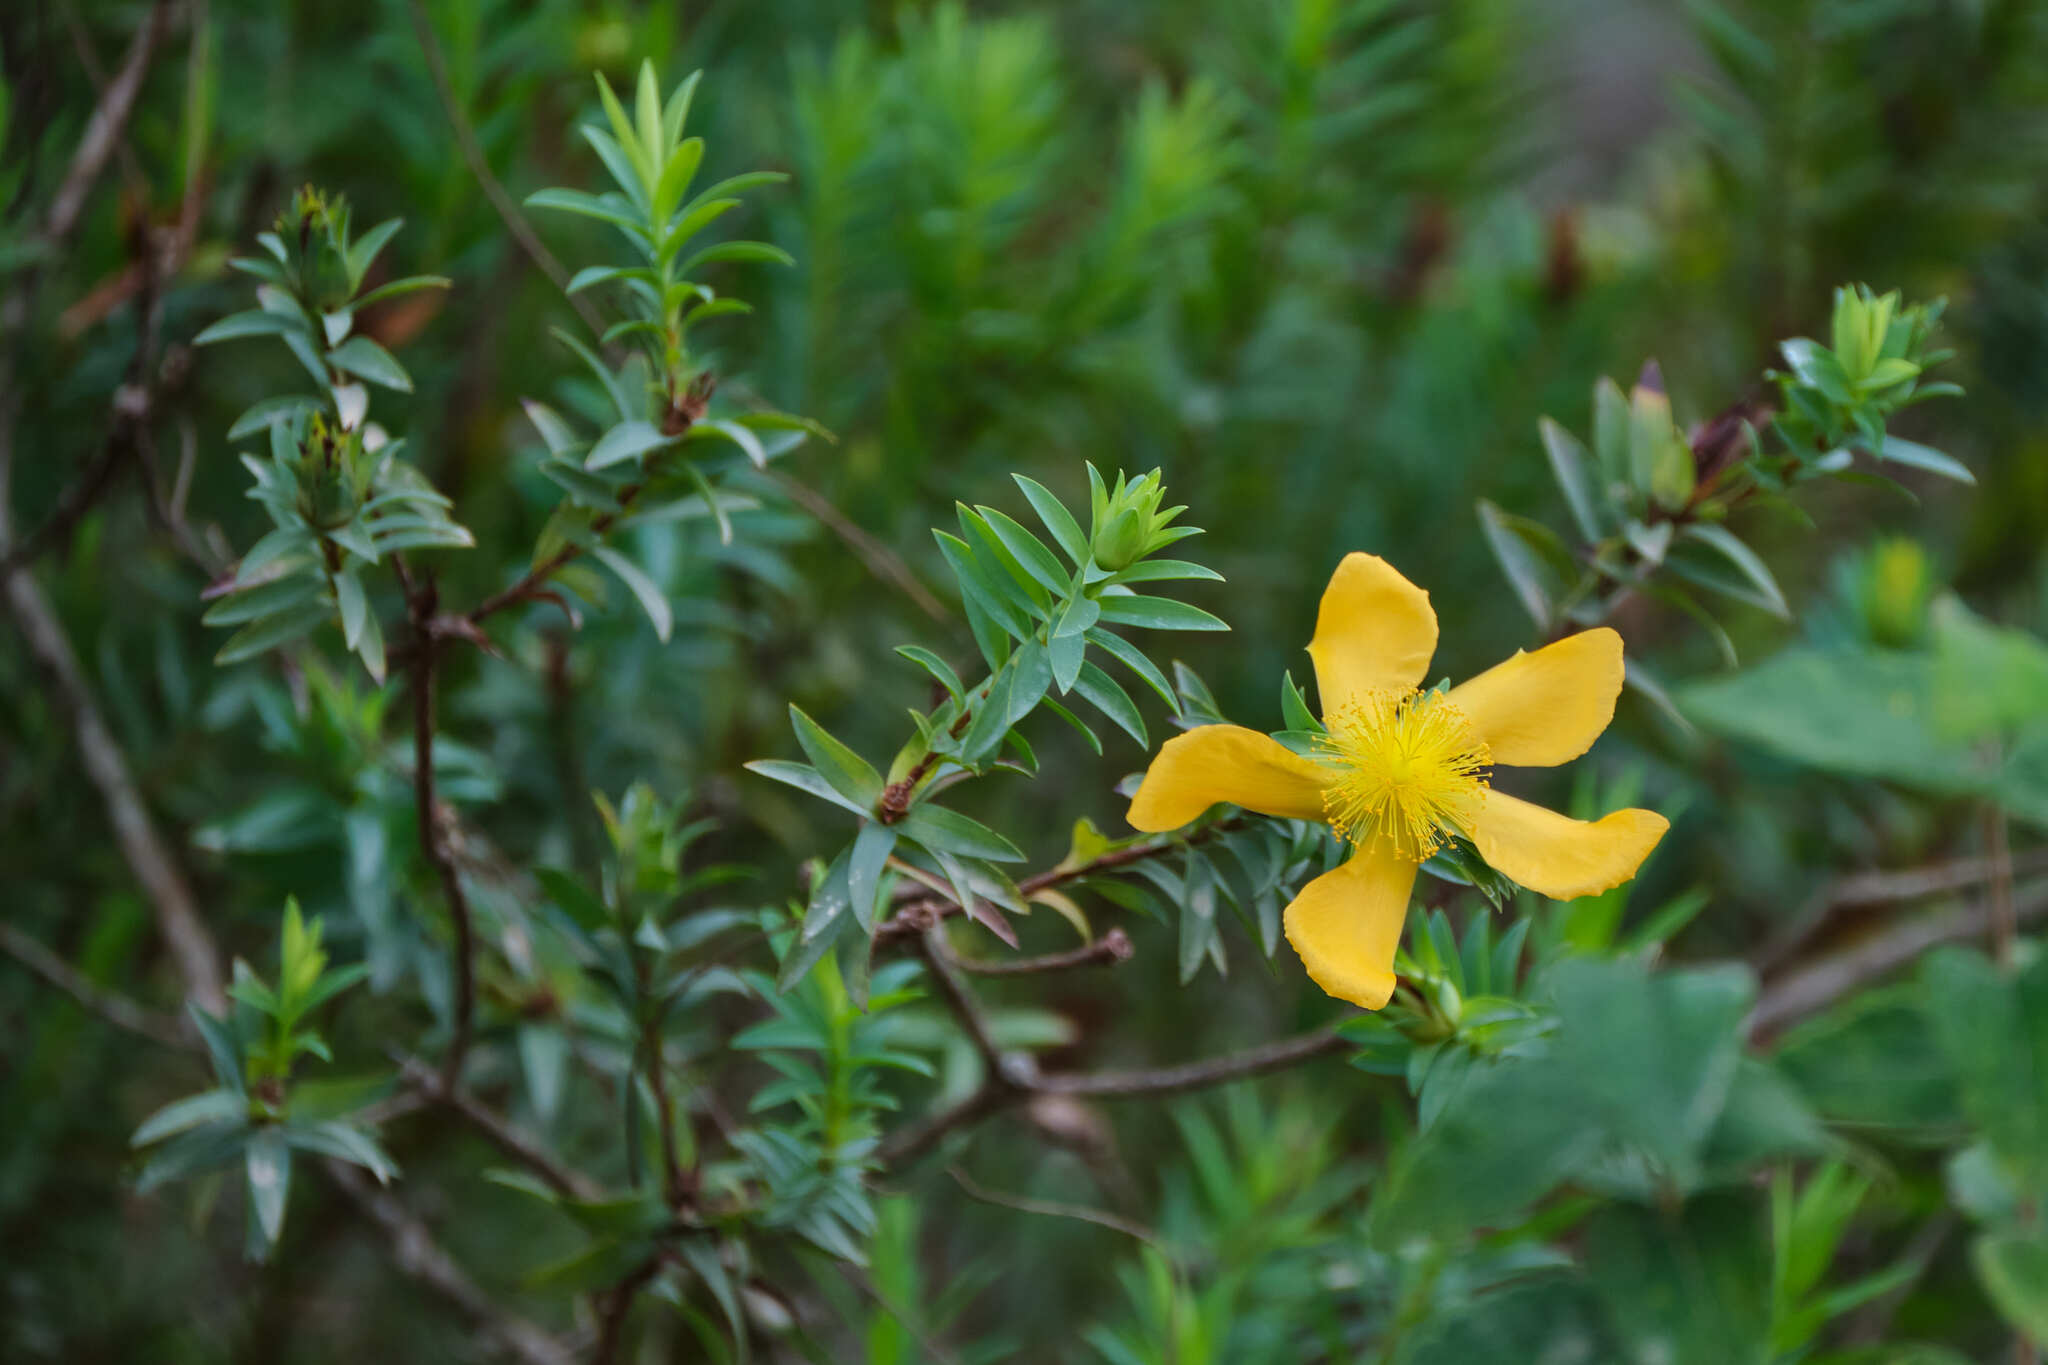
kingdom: Plantae
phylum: Tracheophyta
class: Magnoliopsida
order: Malpighiales
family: Hypericaceae
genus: Hypericum
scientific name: Hypericum styphelioides
